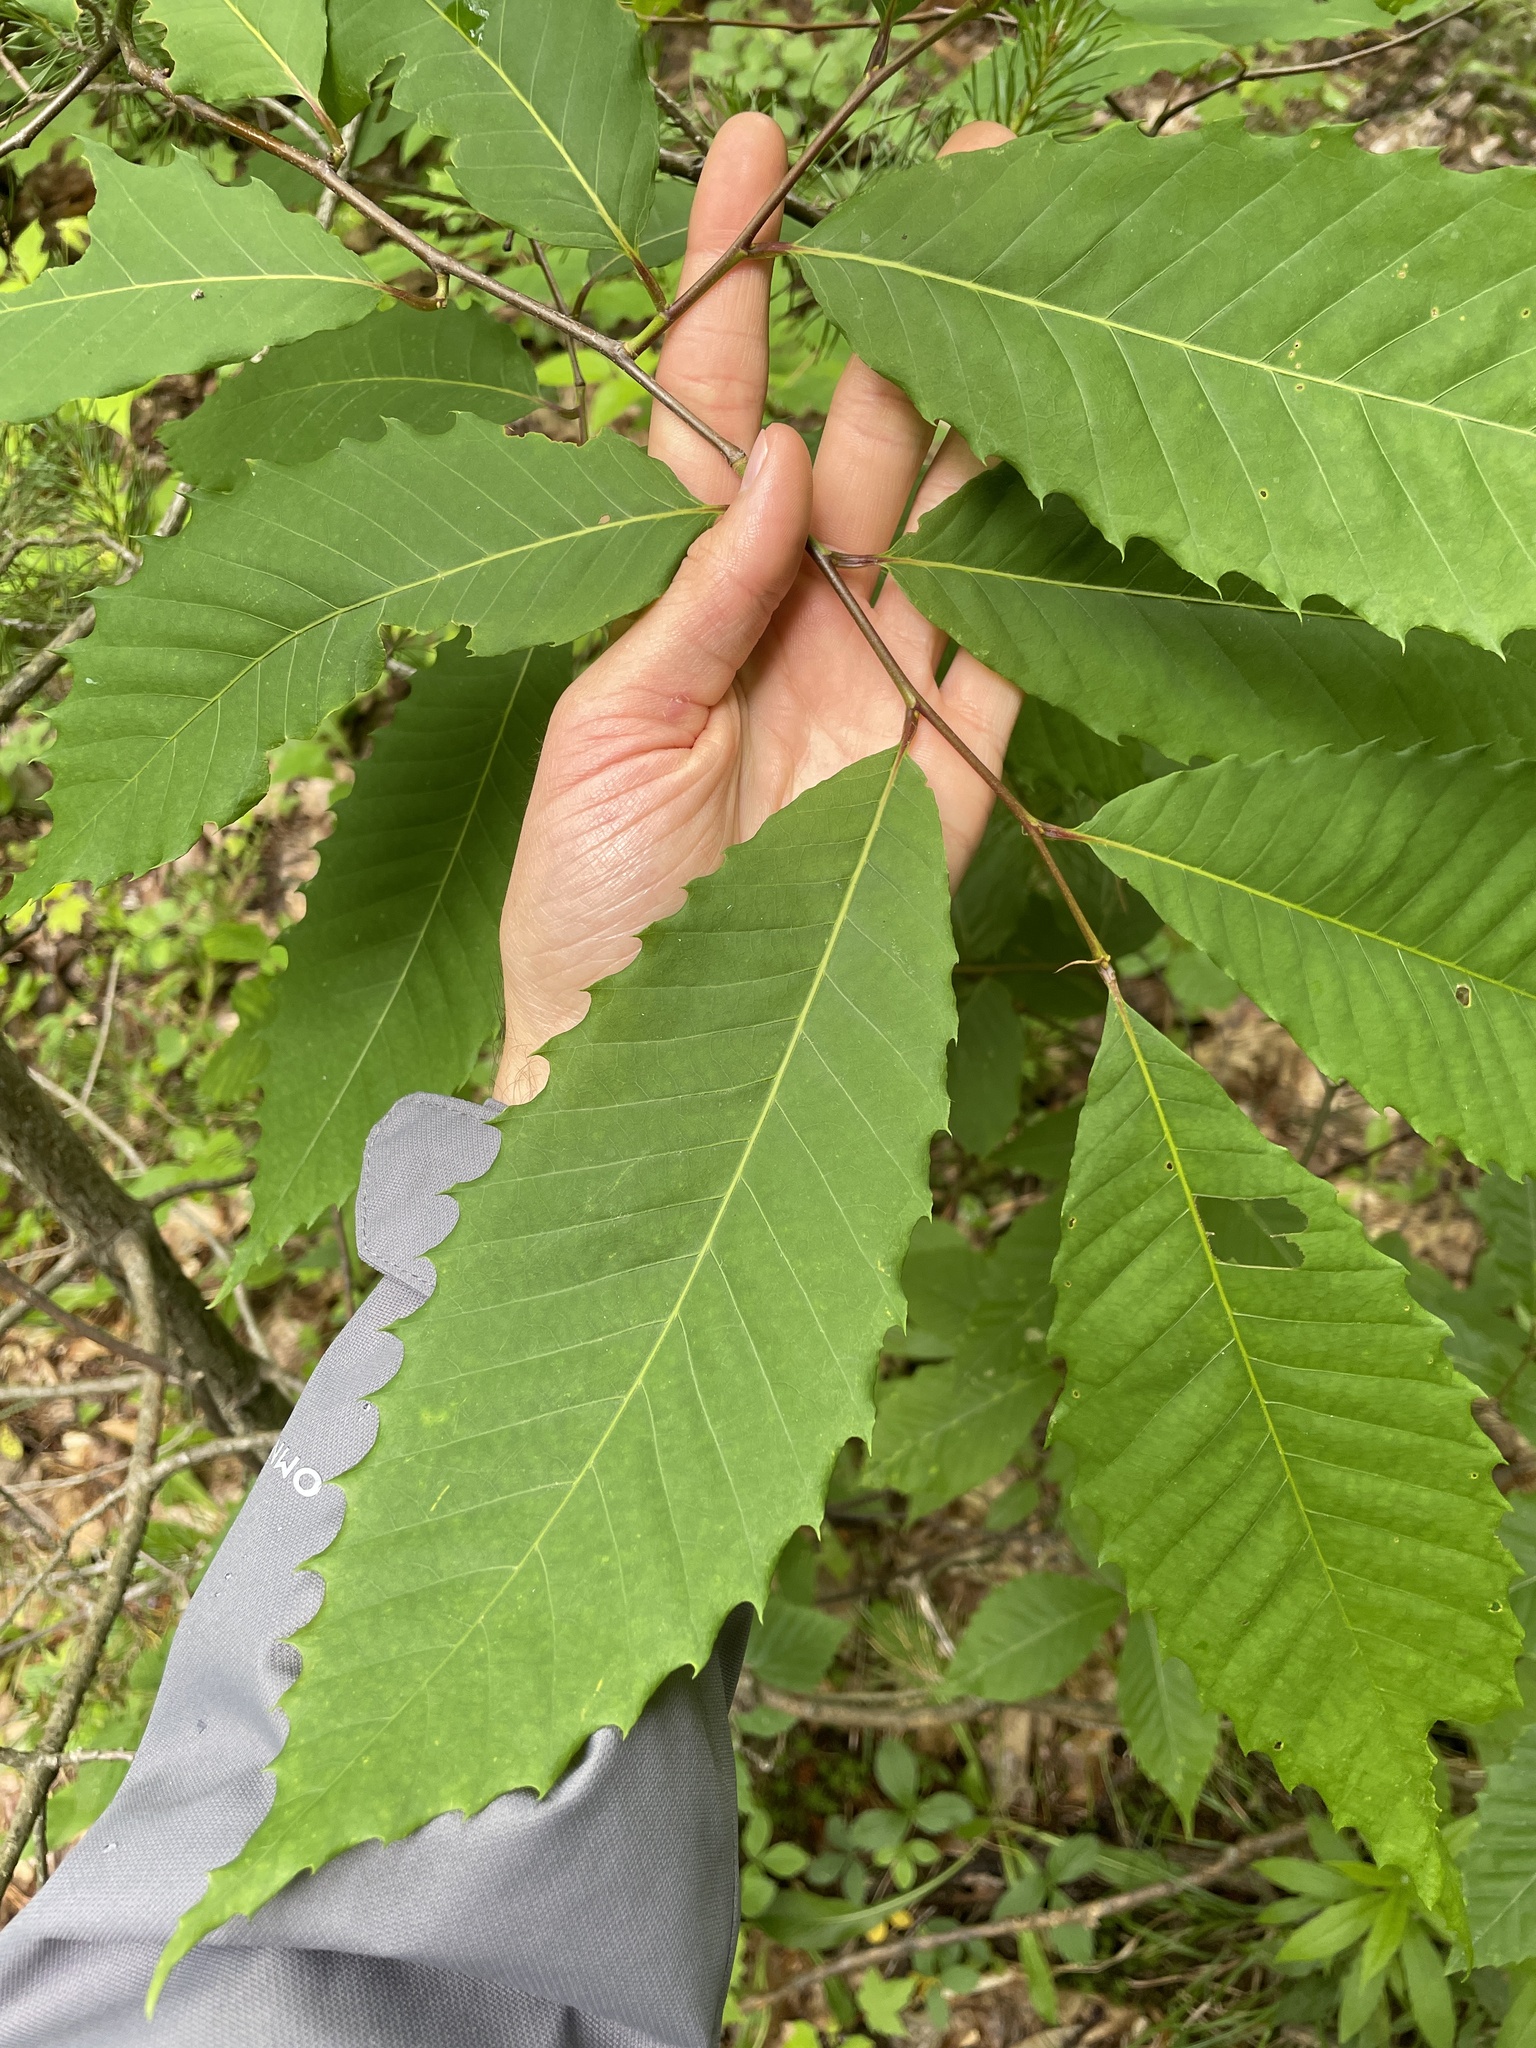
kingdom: Plantae
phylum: Tracheophyta
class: Magnoliopsida
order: Fagales
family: Fagaceae
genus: Castanea
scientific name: Castanea dentata
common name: American chestnut
